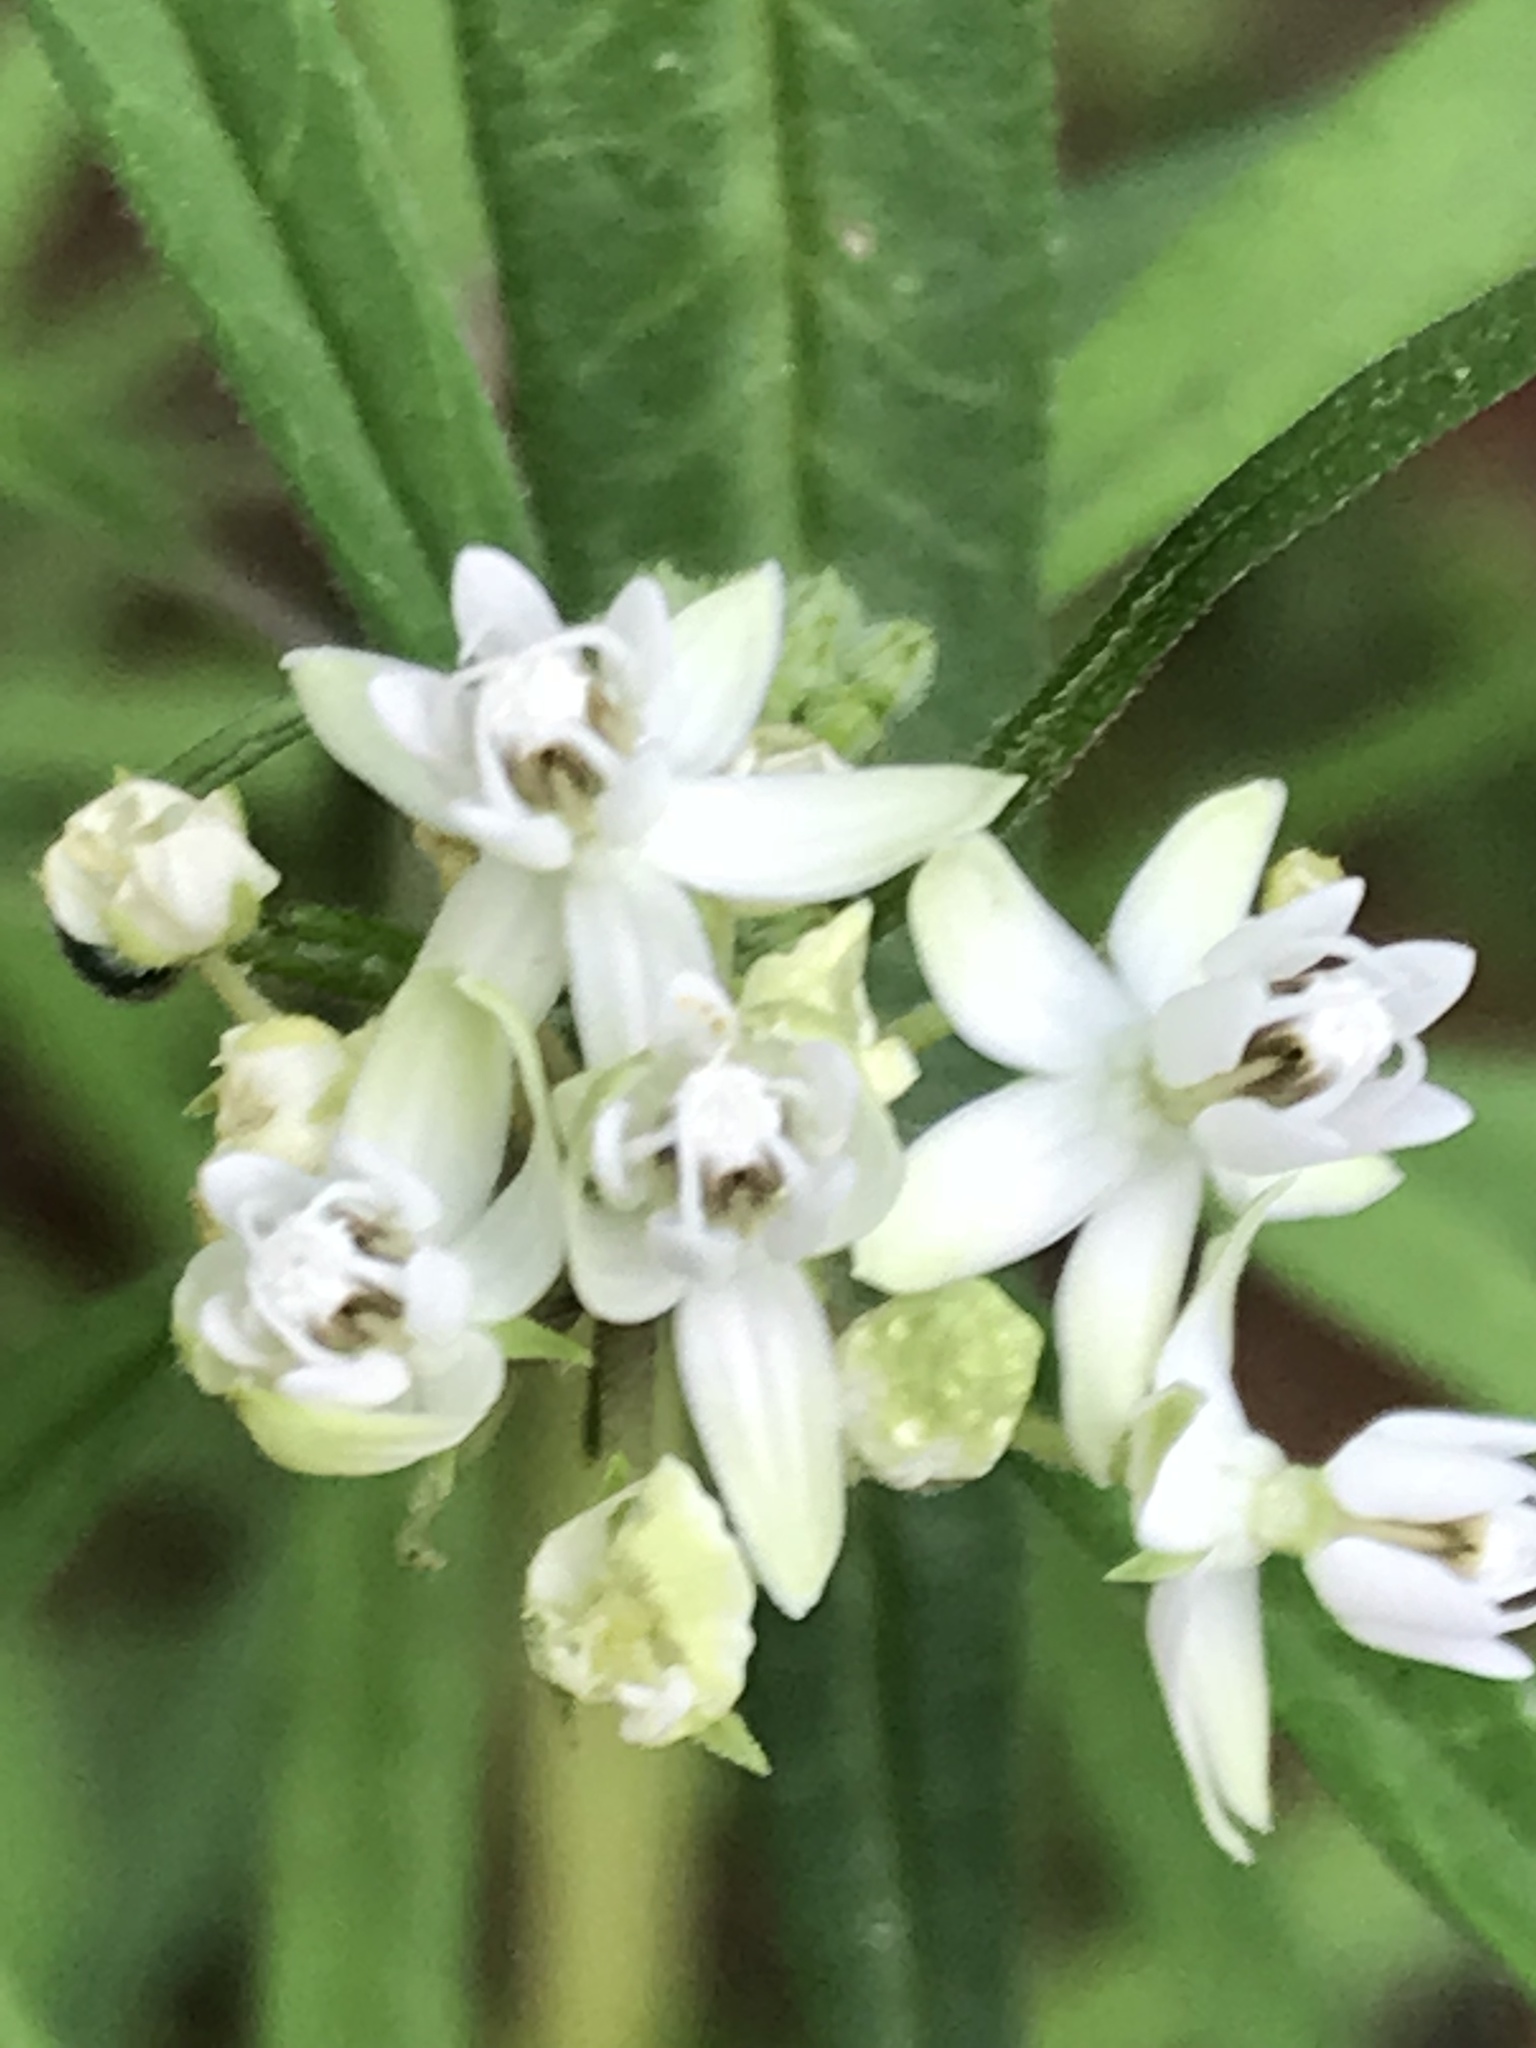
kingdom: Plantae
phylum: Tracheophyta
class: Magnoliopsida
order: Gentianales
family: Apocynaceae
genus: Asclepias
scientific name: Asclepias angustifolia
